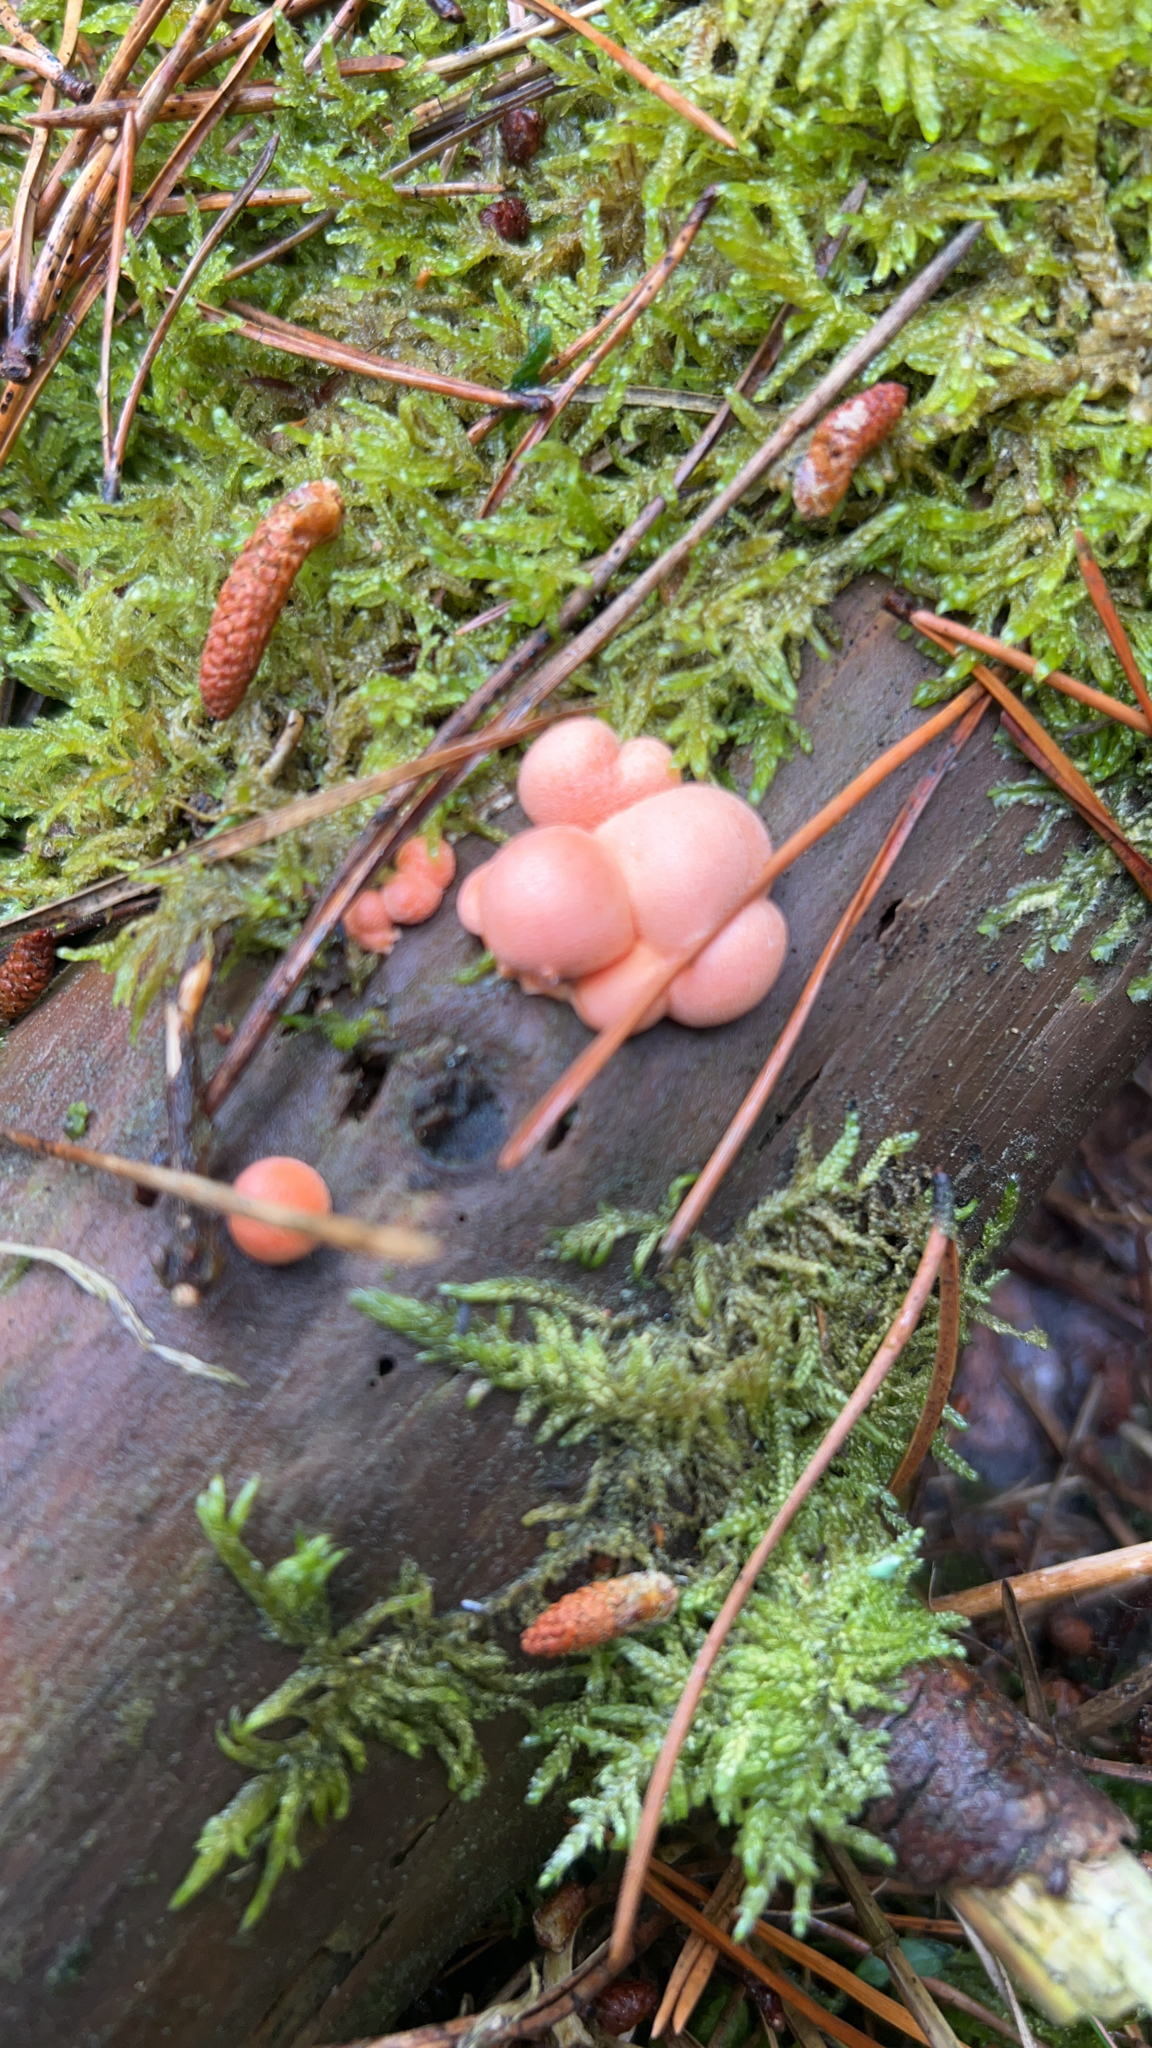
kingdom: Protozoa
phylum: Mycetozoa
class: Myxomycetes
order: Cribrariales
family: Tubiferaceae
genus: Lycogala
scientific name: Lycogala epidendrum
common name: Wolf's milk
